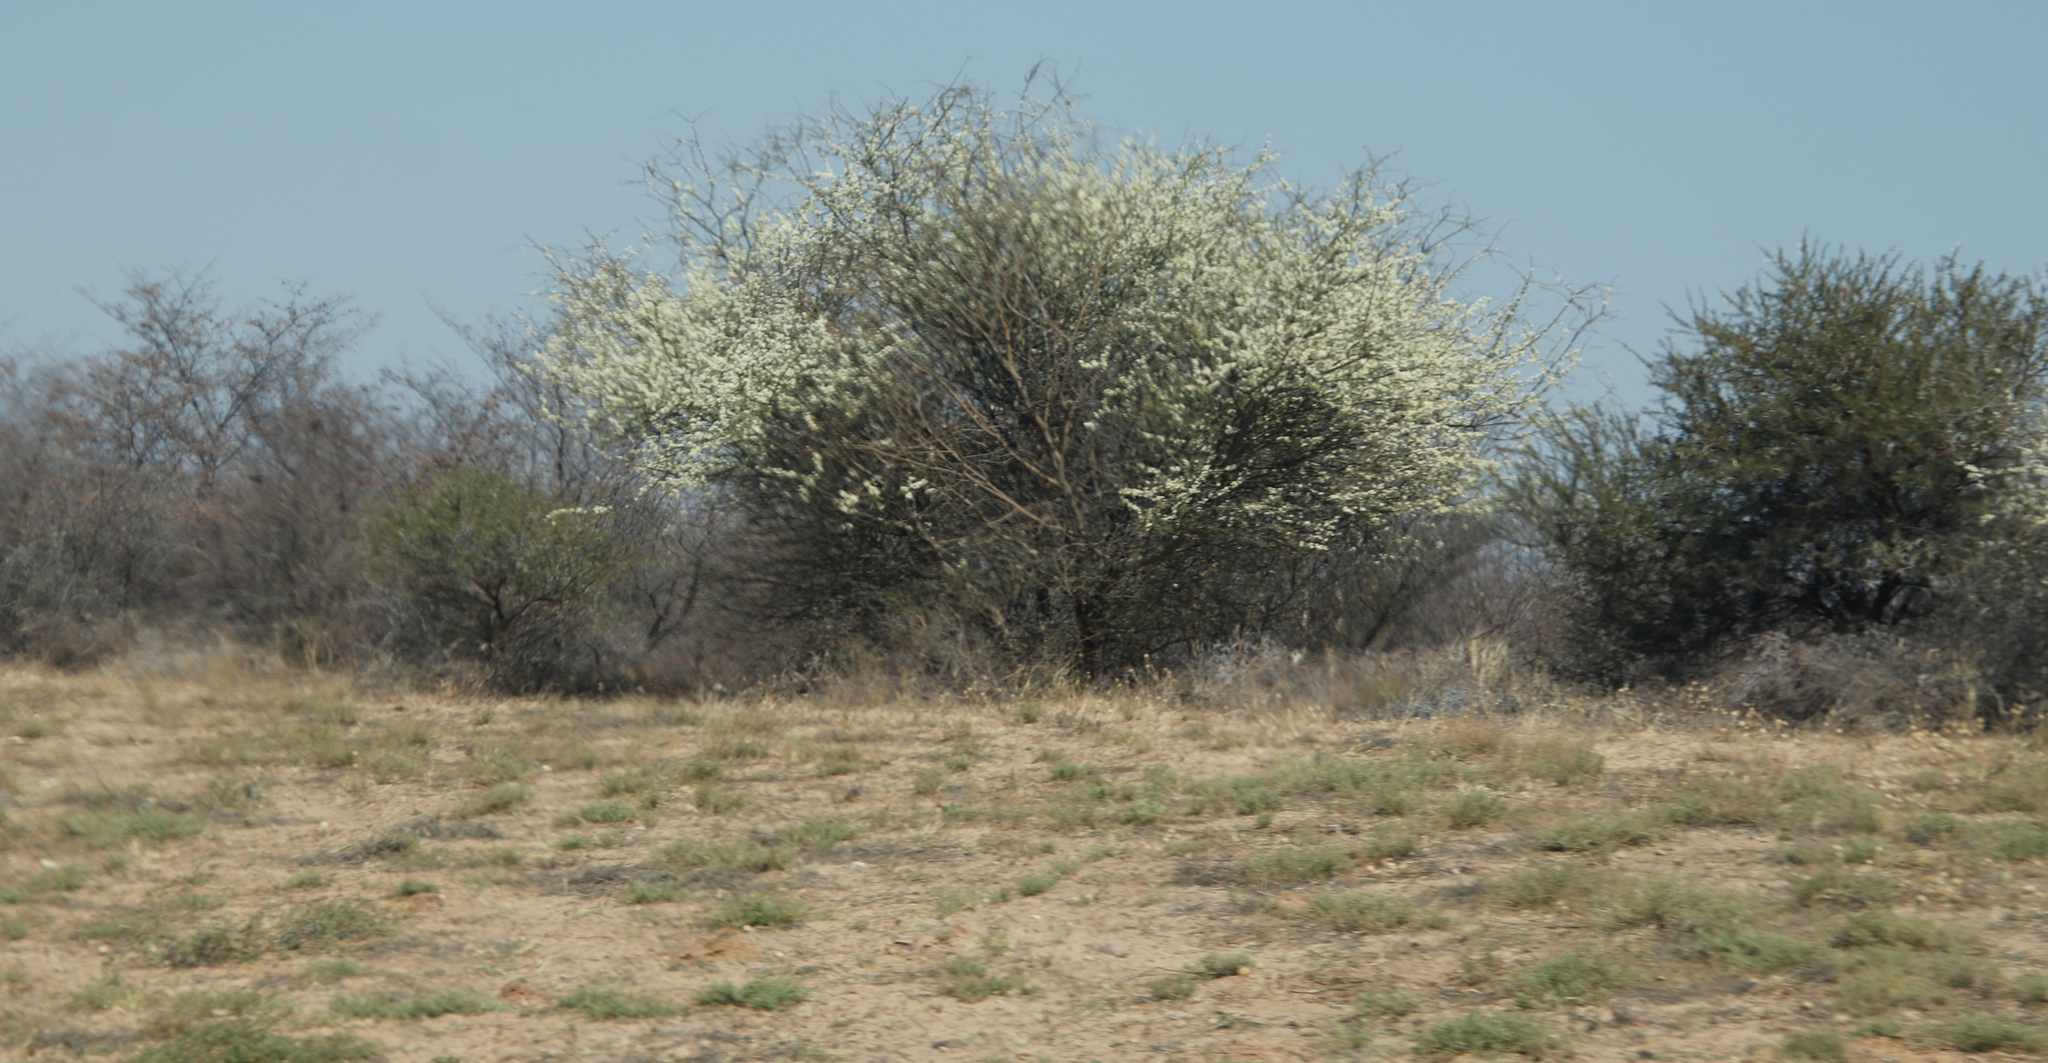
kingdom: Plantae
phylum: Tracheophyta
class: Magnoliopsida
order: Fabales
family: Fabaceae
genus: Senegalia
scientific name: Senegalia mellifera
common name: Hookthorn
